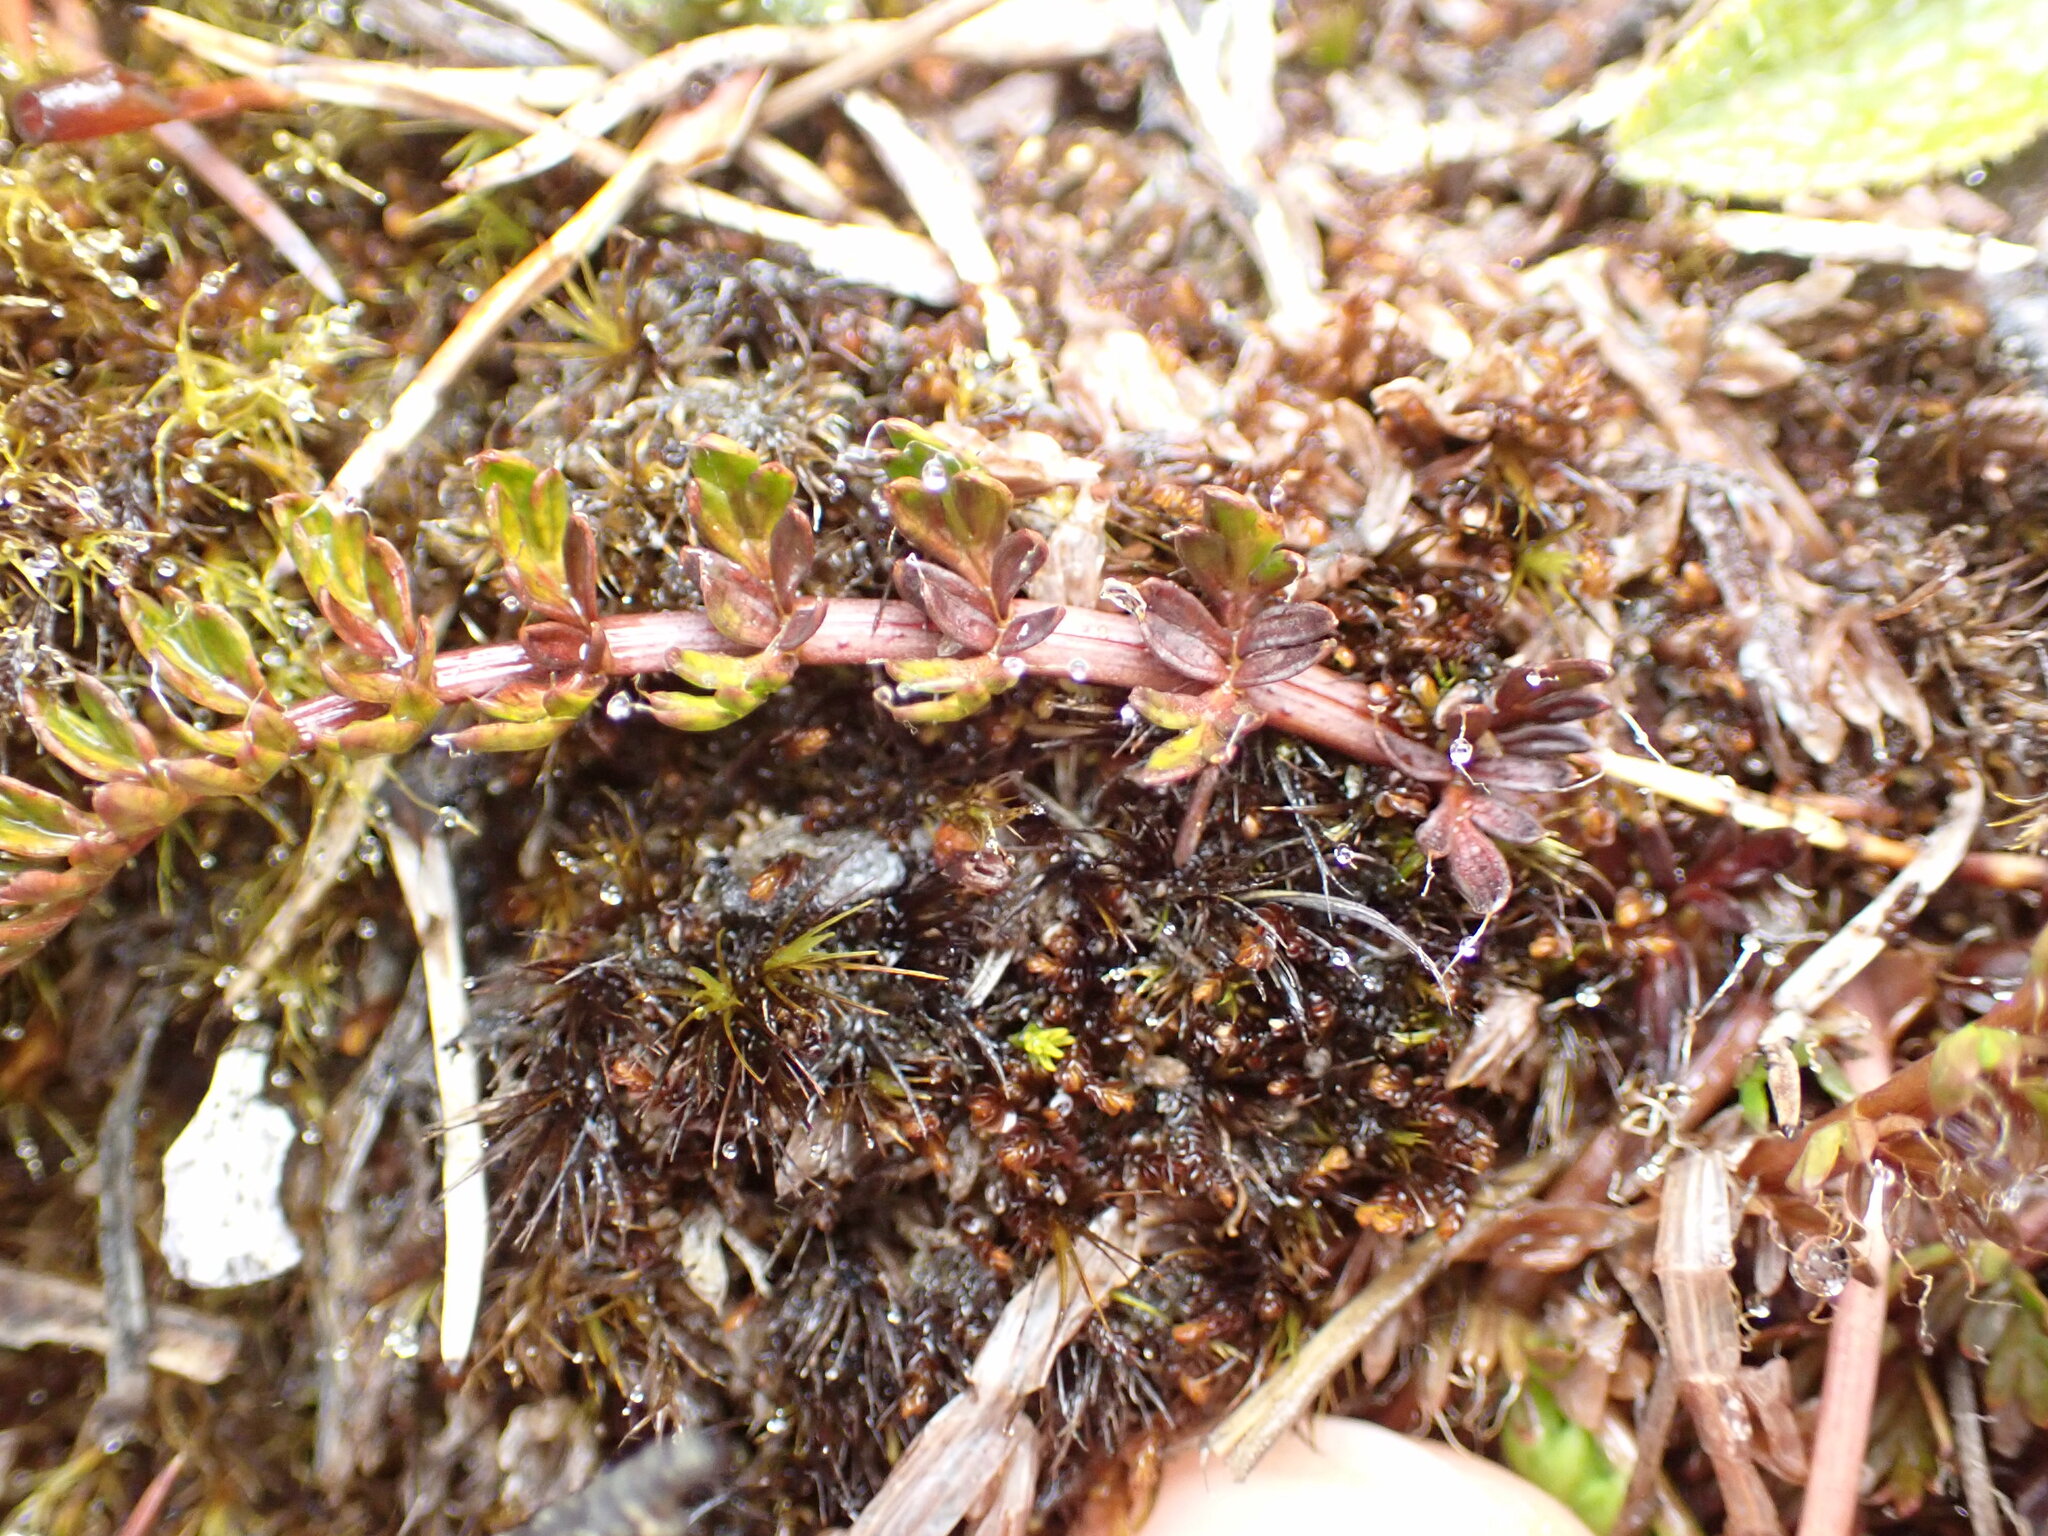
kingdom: Plantae
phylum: Tracheophyta
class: Magnoliopsida
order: Apiales
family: Apiaceae
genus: Anisotome
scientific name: Anisotome flexuosa
